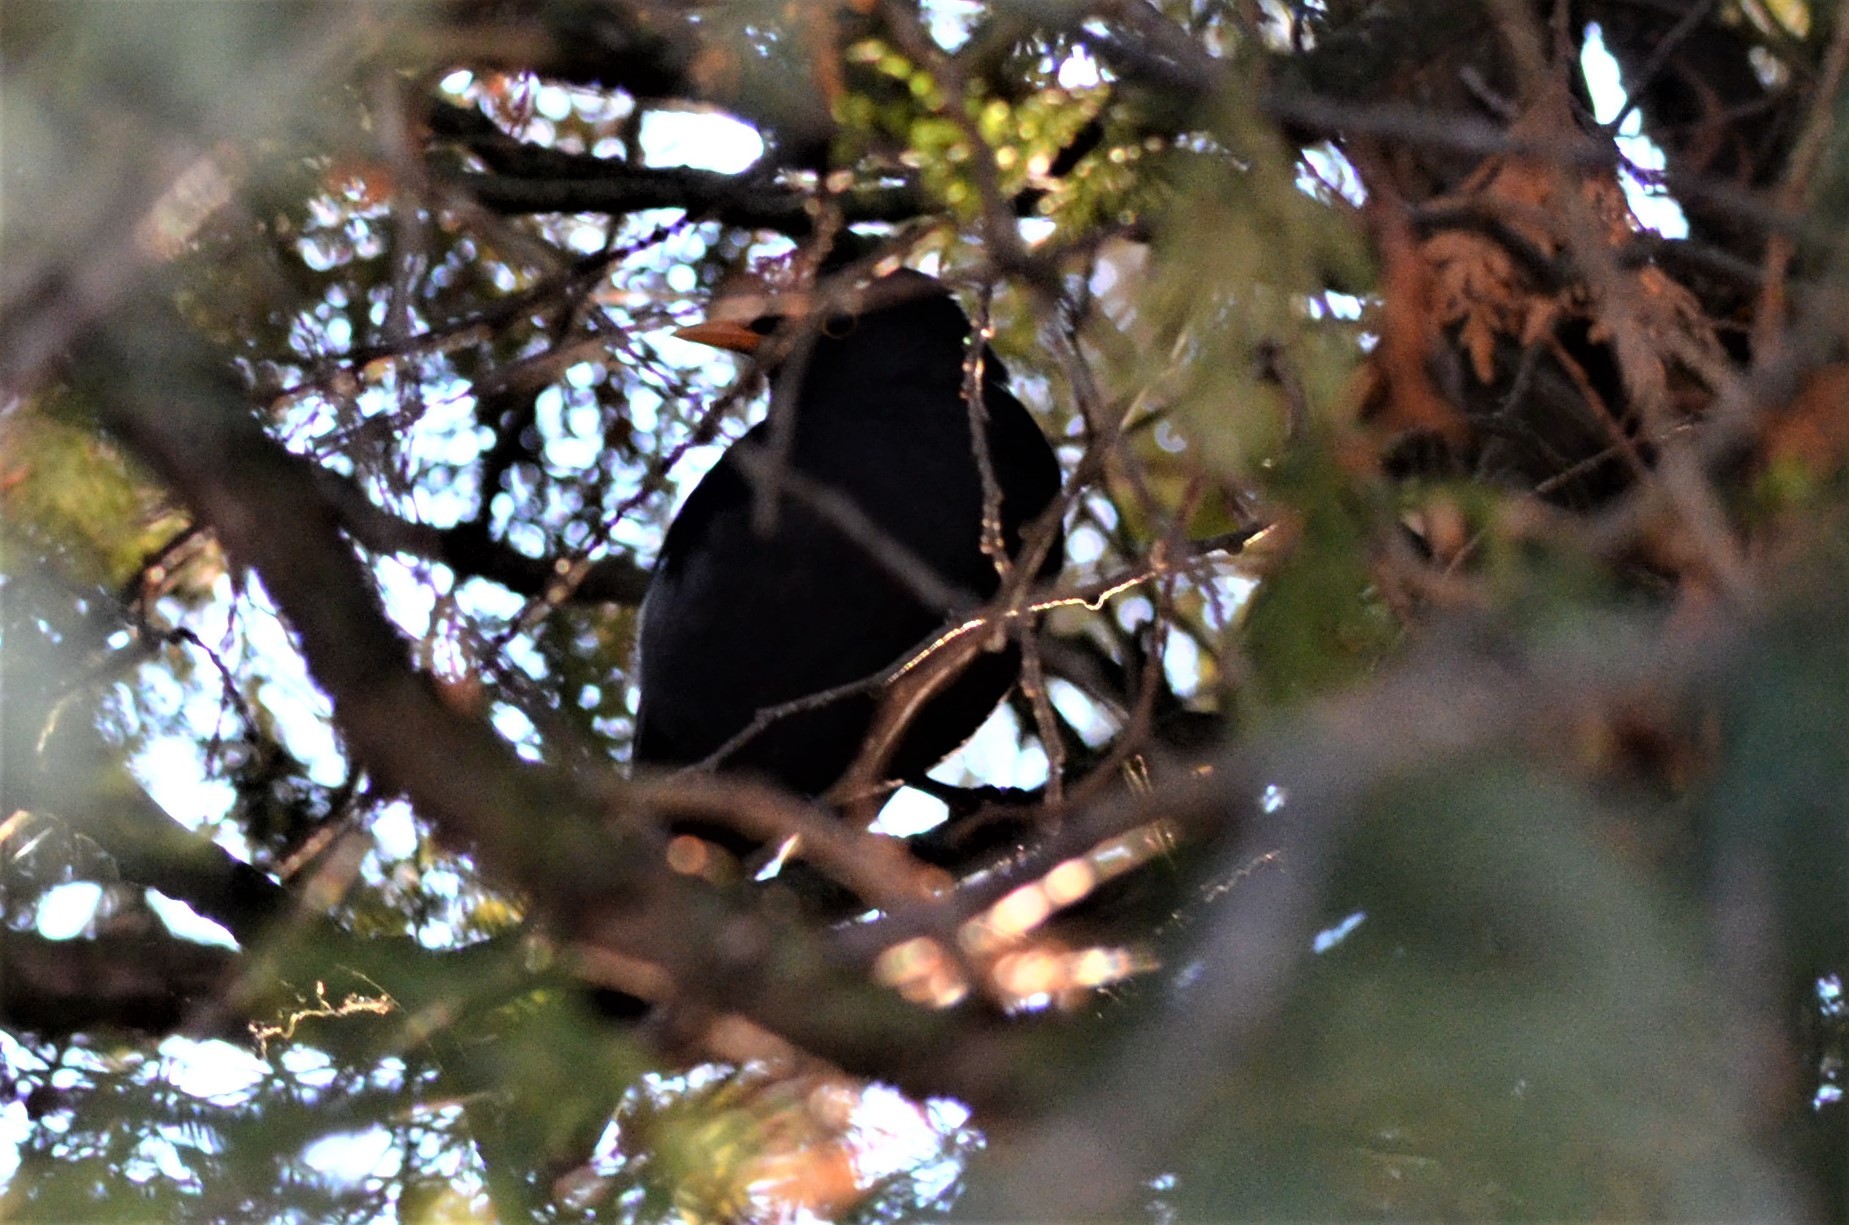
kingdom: Animalia
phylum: Chordata
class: Aves
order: Passeriformes
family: Turdidae
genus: Turdus
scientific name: Turdus merula
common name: Common blackbird
